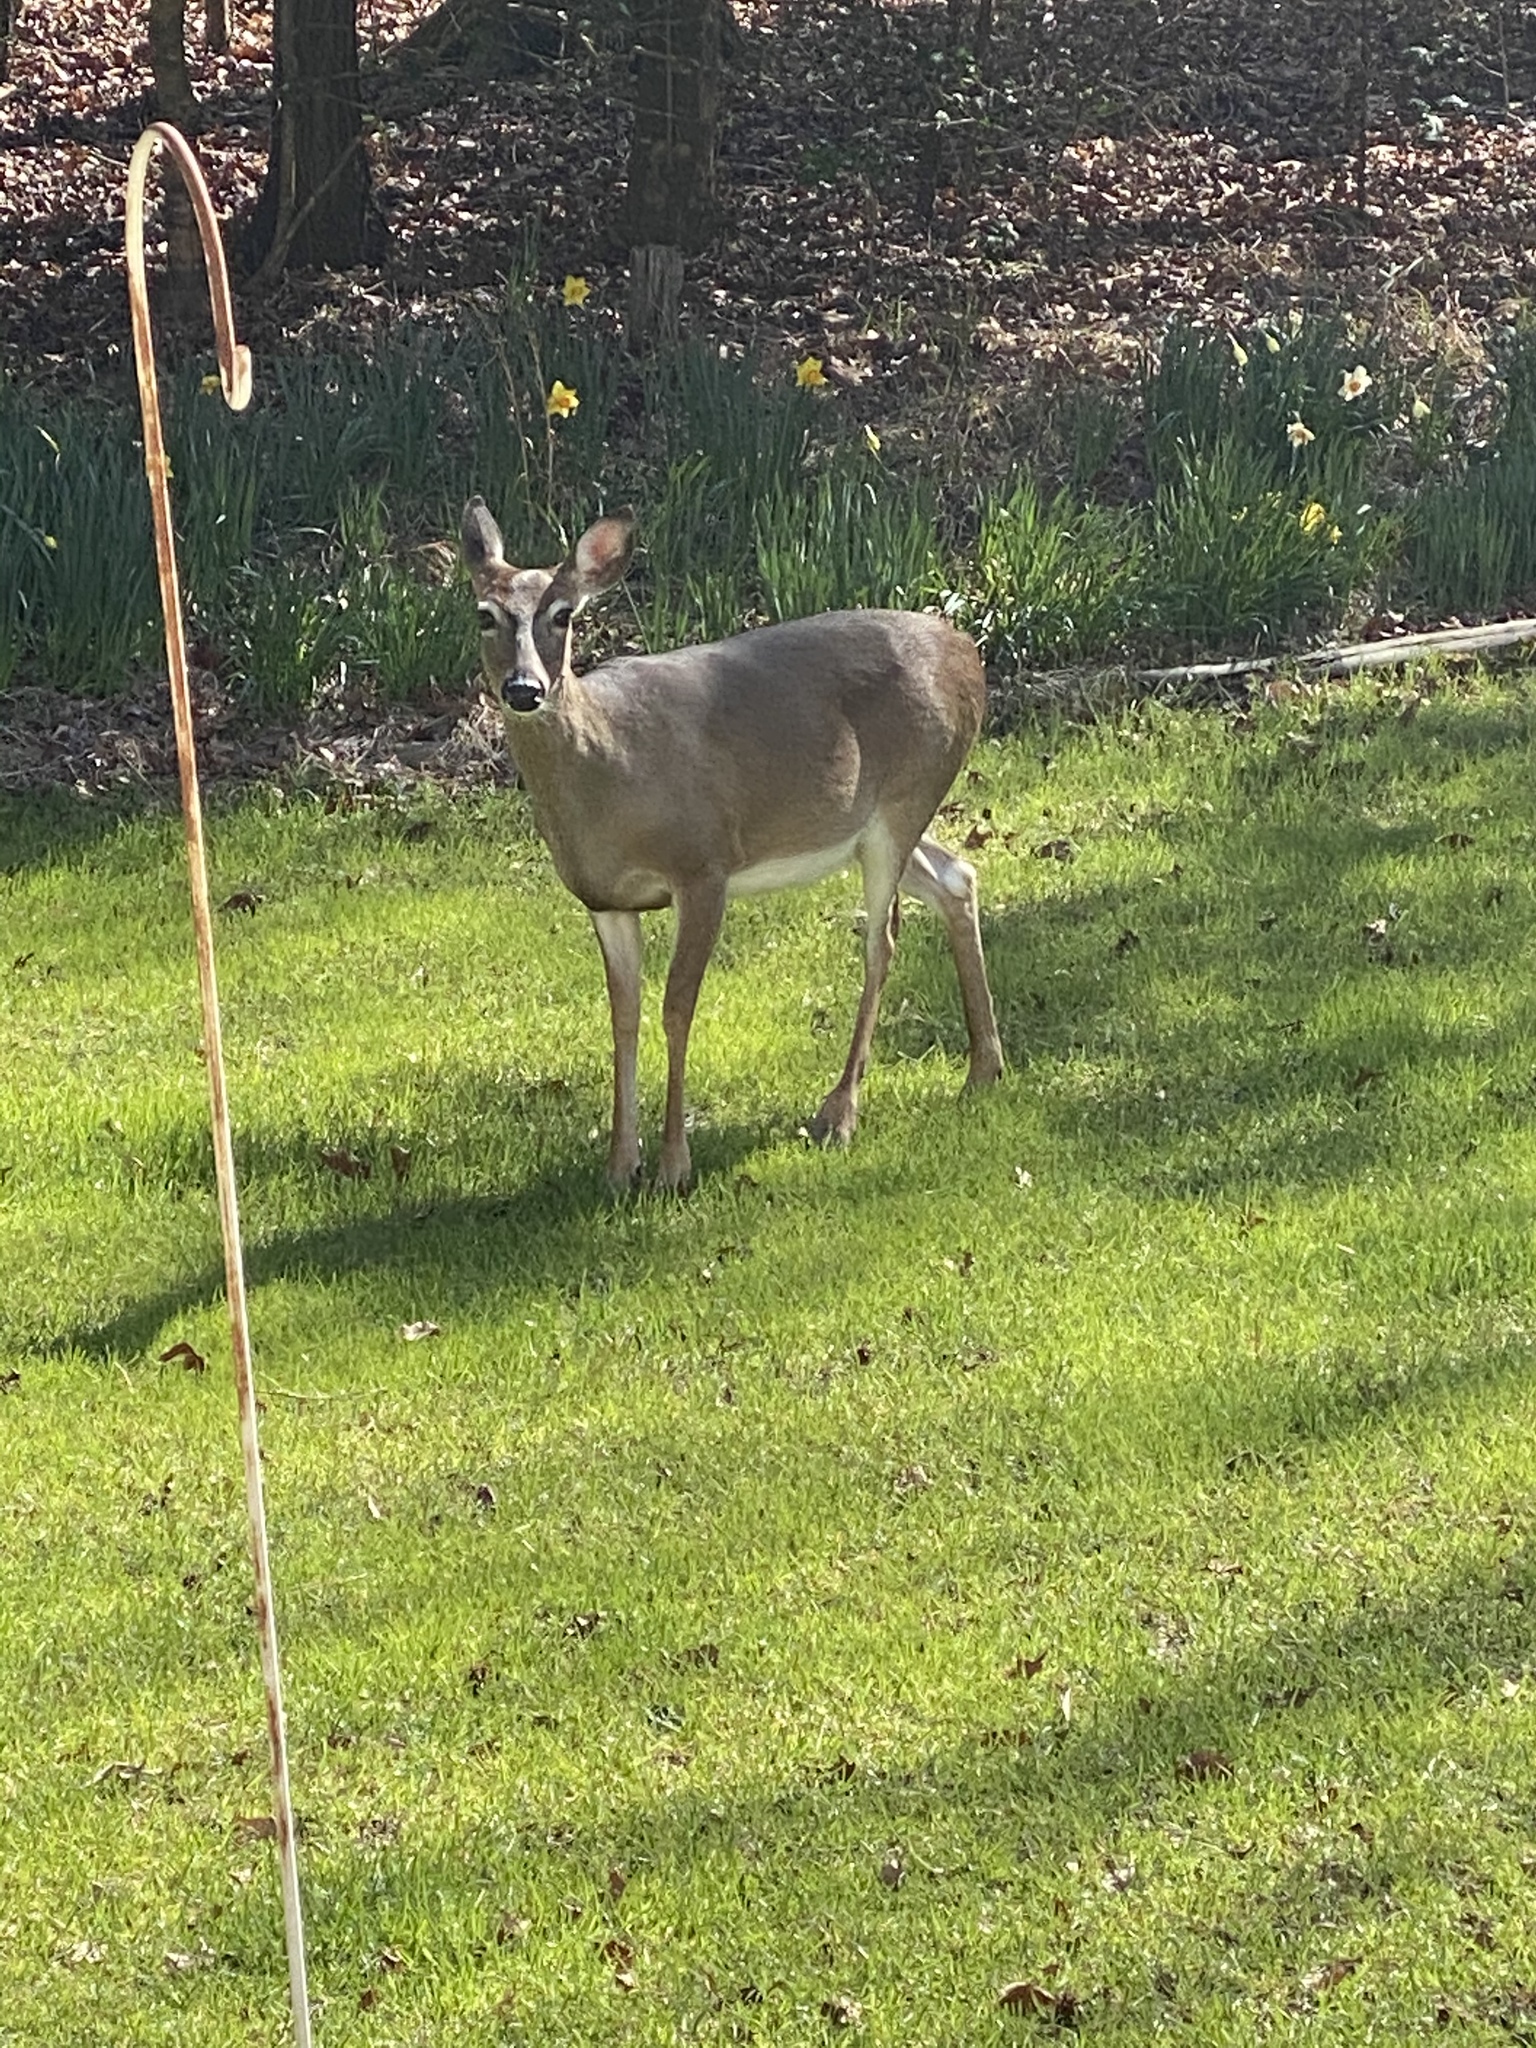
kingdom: Animalia
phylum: Chordata
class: Mammalia
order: Artiodactyla
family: Cervidae
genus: Odocoileus
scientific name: Odocoileus virginianus
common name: White-tailed deer
